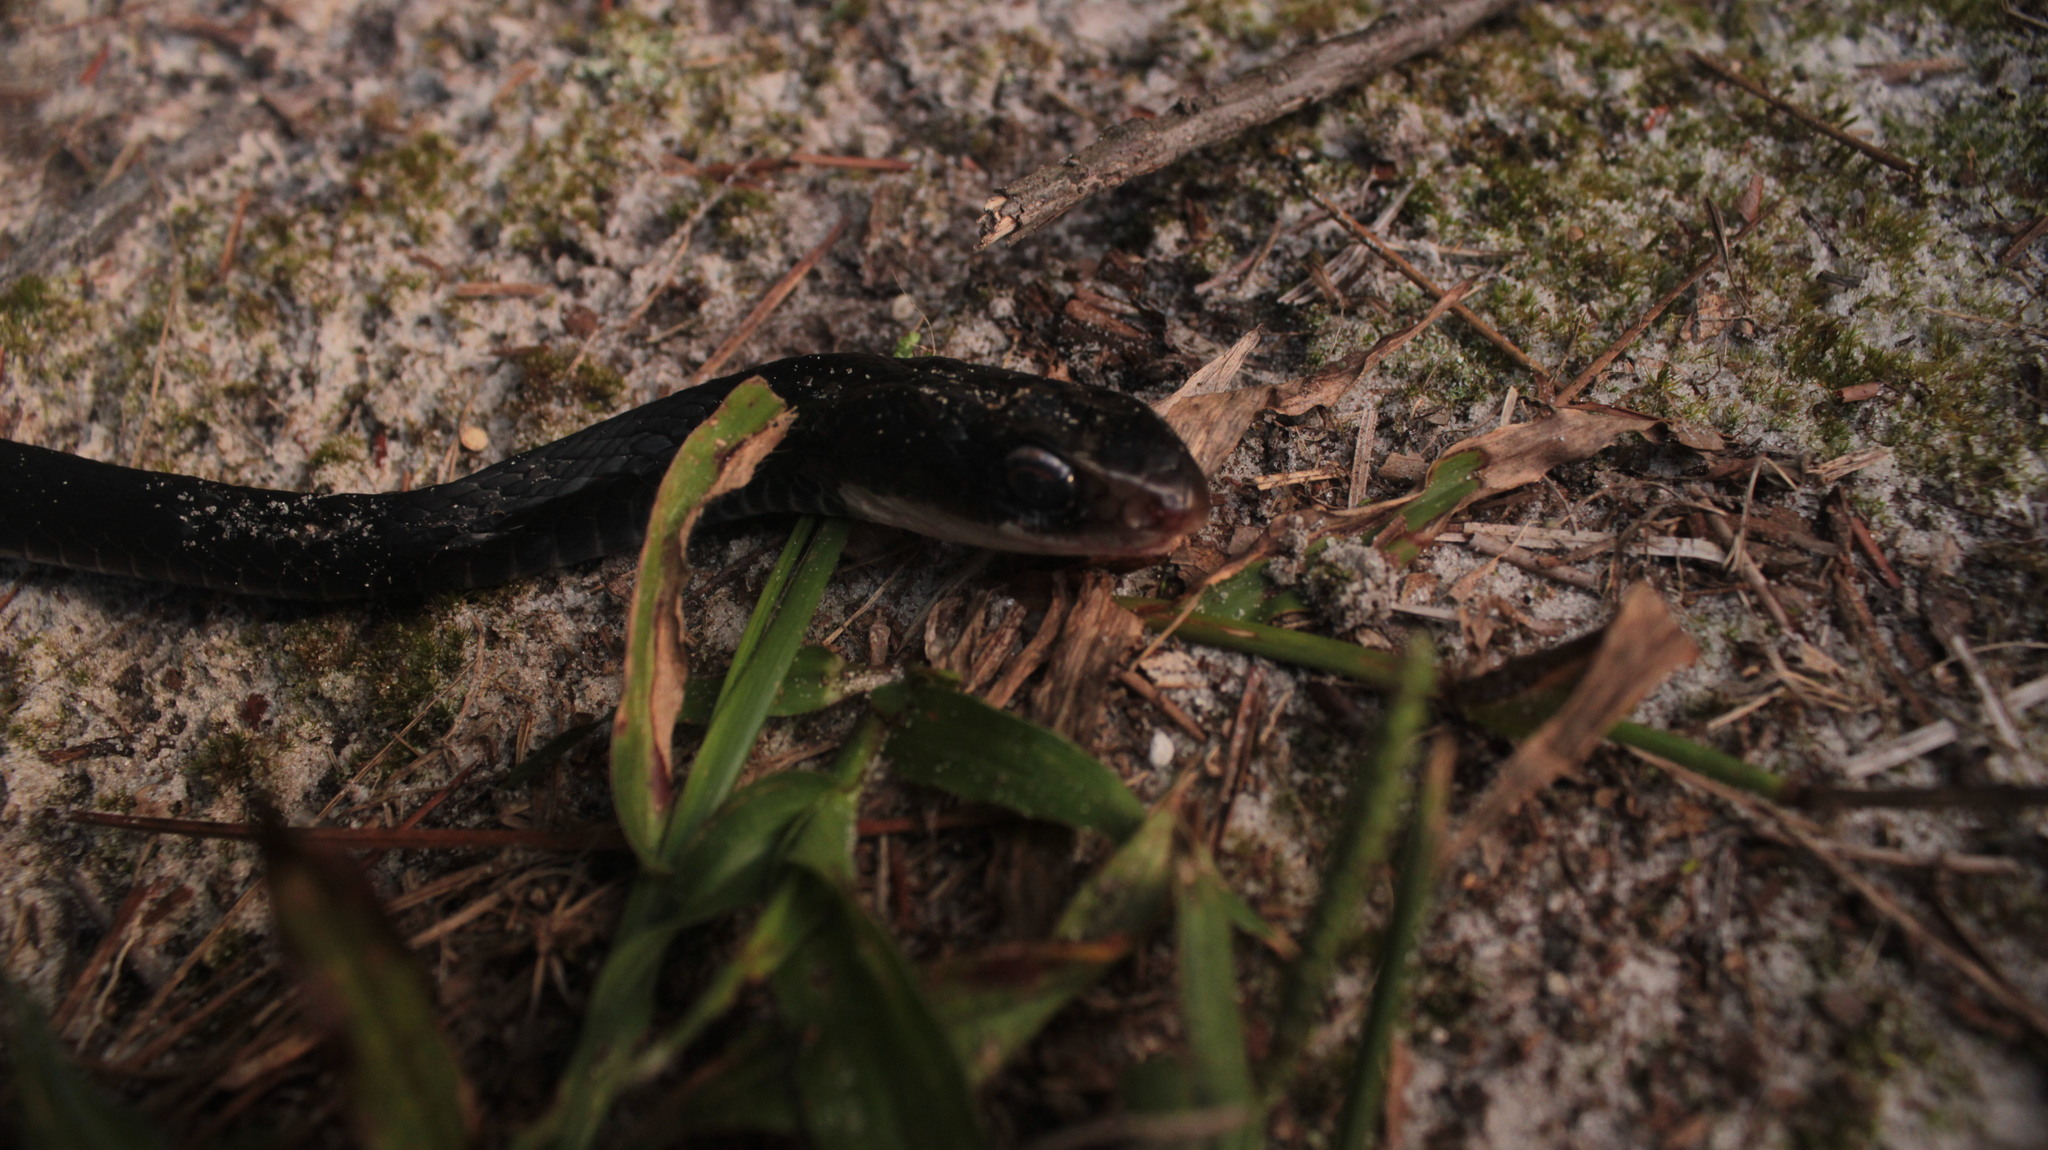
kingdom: Animalia
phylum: Chordata
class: Squamata
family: Colubridae
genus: Coluber
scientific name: Coluber constrictor
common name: Eastern racer
